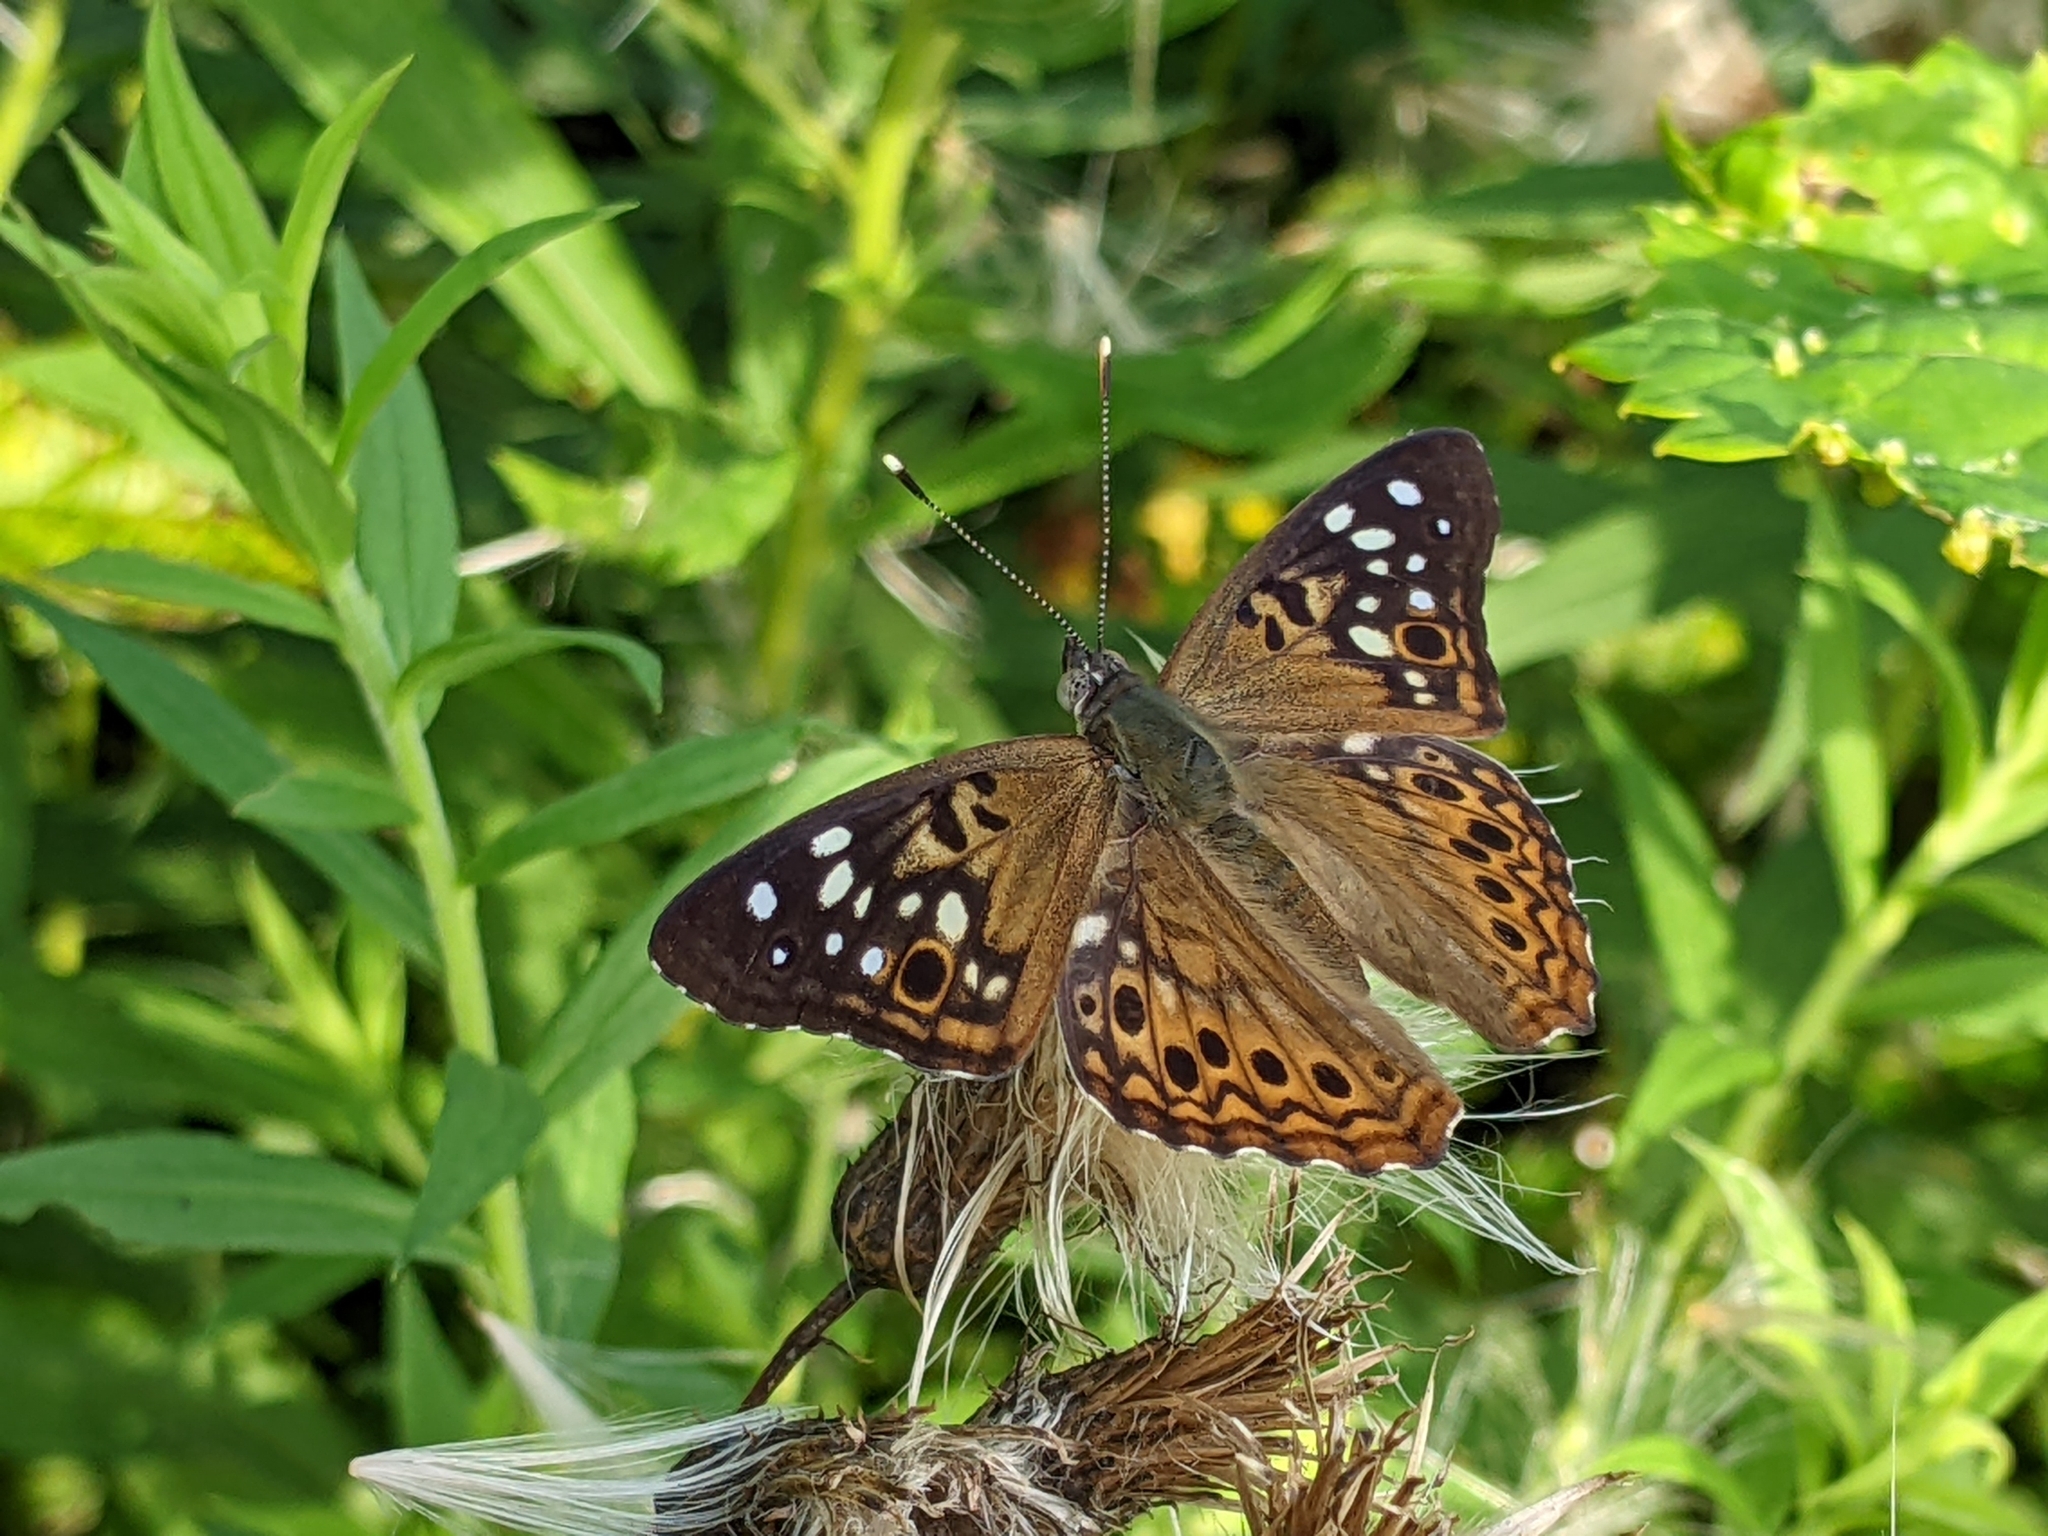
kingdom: Animalia
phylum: Arthropoda
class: Insecta
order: Lepidoptera
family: Nymphalidae
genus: Asterocampa
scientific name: Asterocampa celtis
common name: Hackberry emperor
